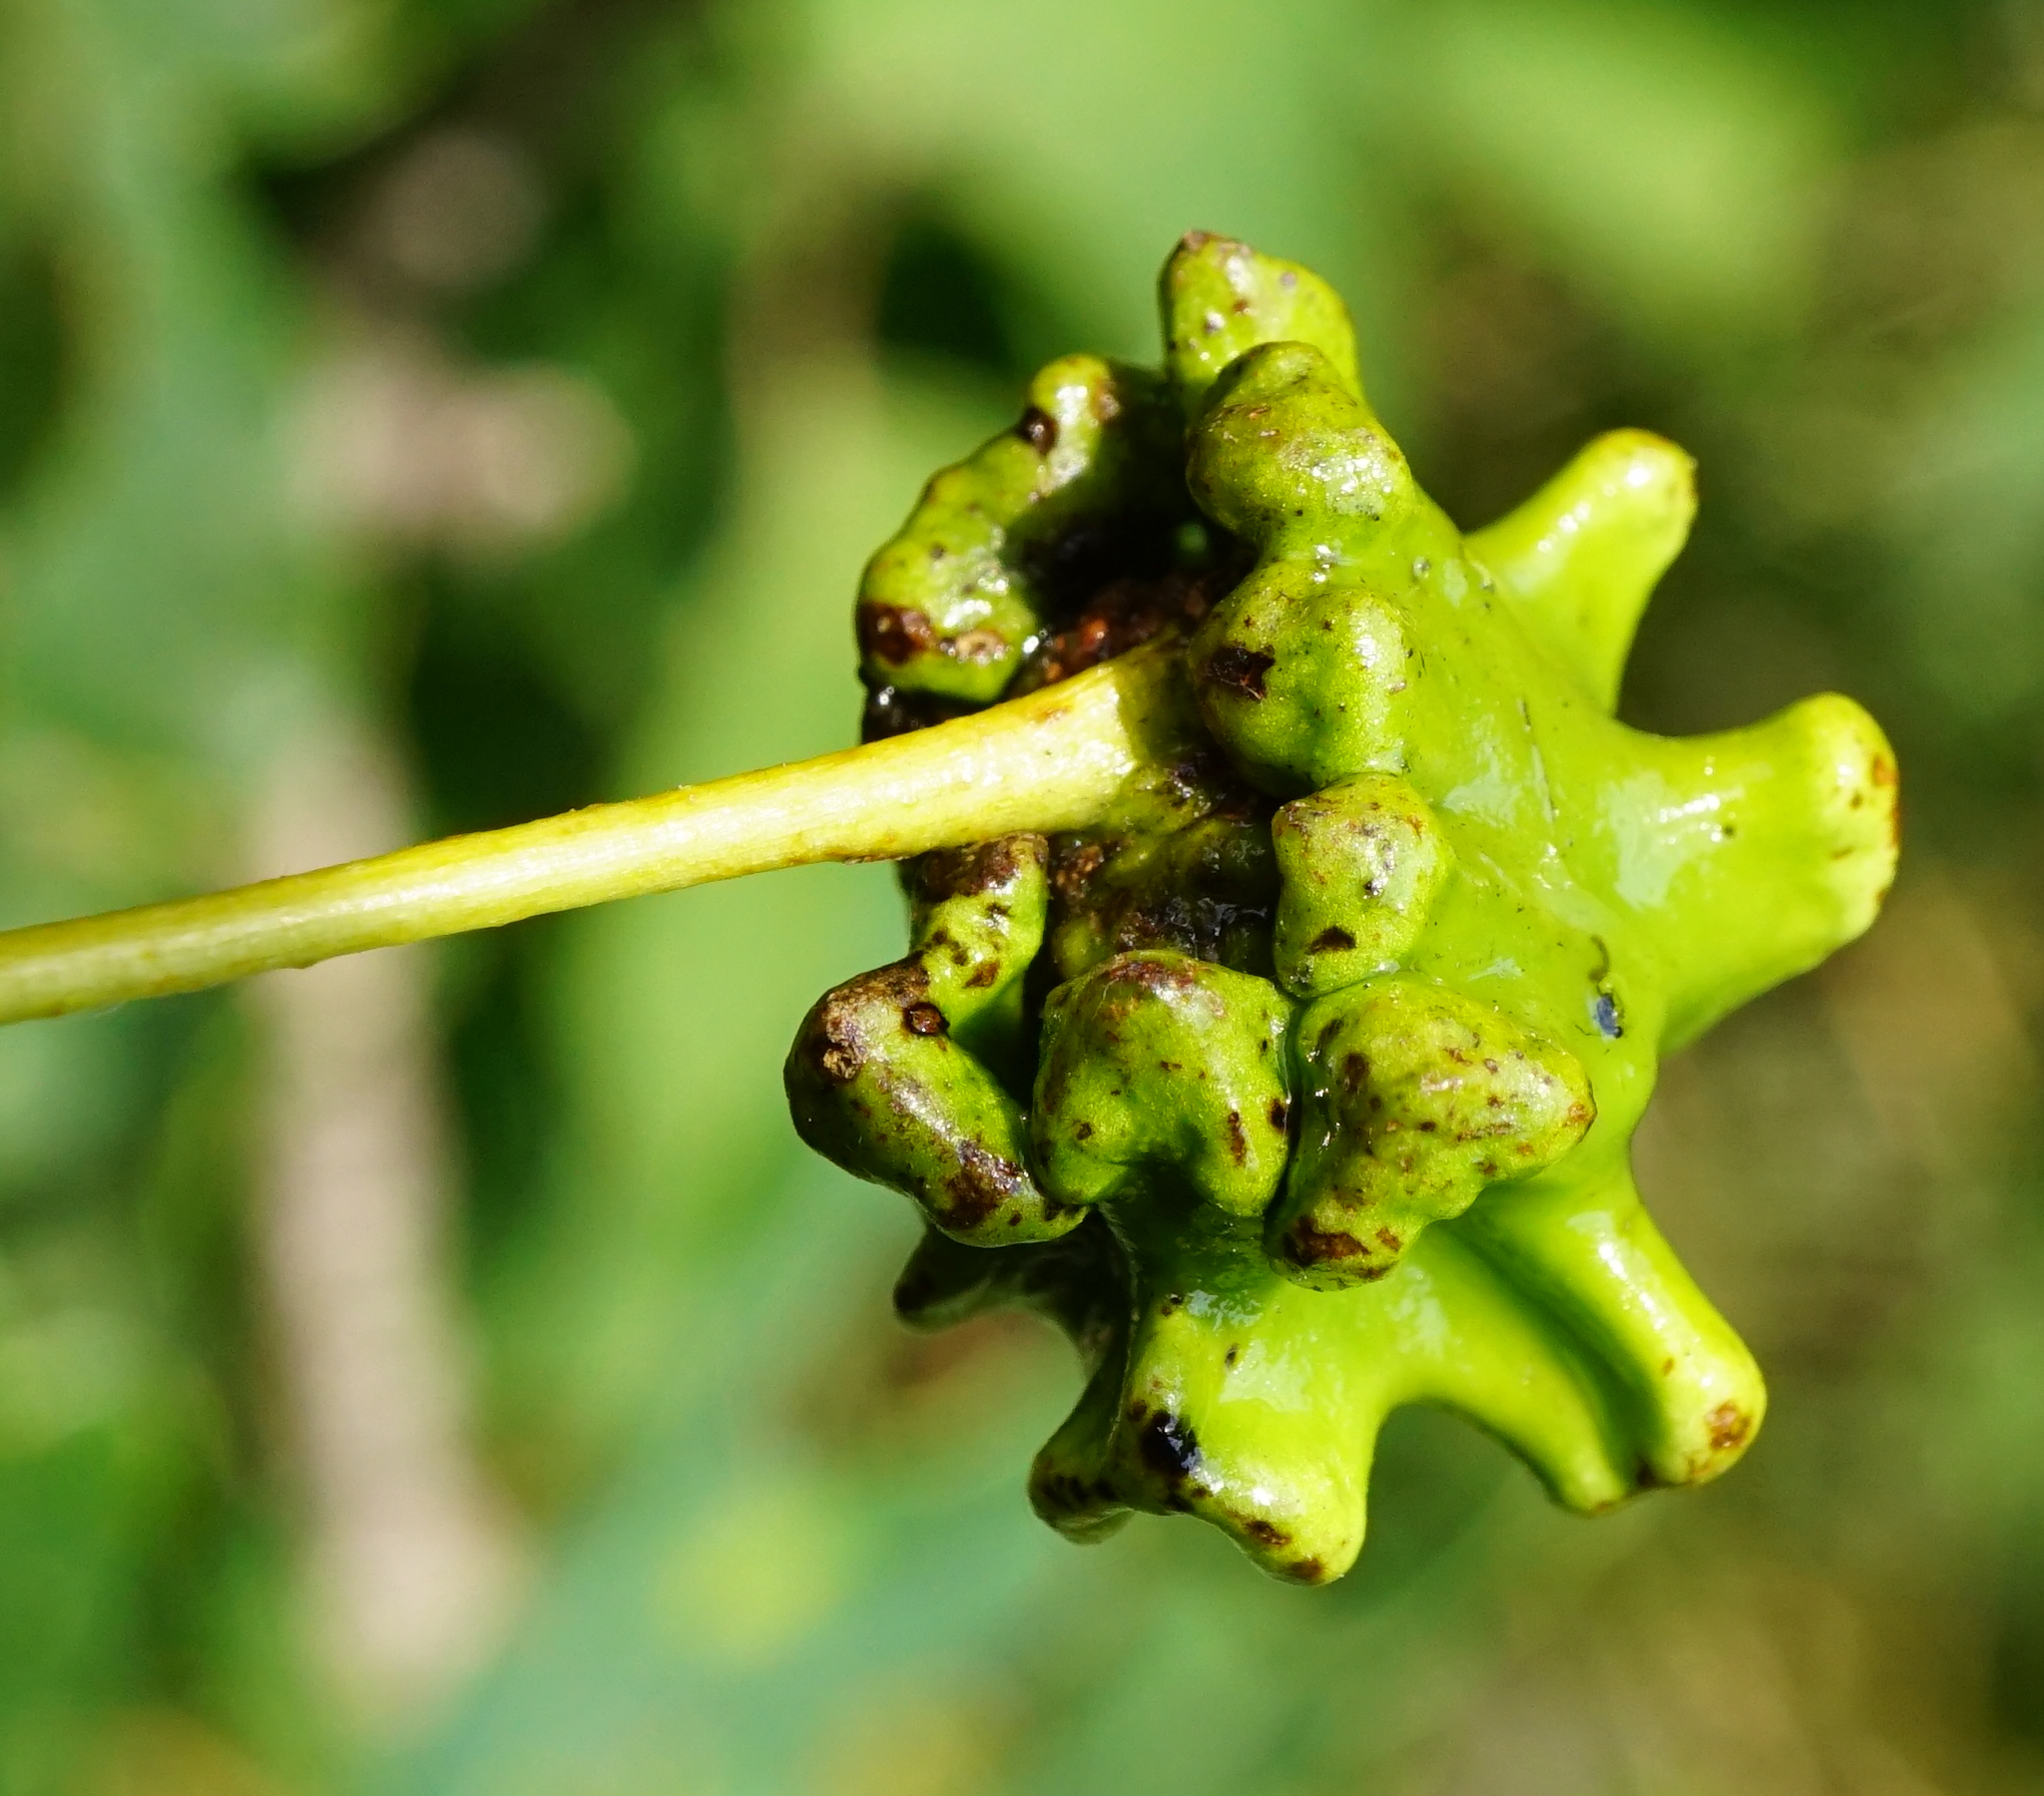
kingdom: Animalia
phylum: Arthropoda
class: Insecta
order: Hymenoptera
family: Cynipidae
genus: Andricus
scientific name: Andricus quercuscalicis
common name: Knopper gall
